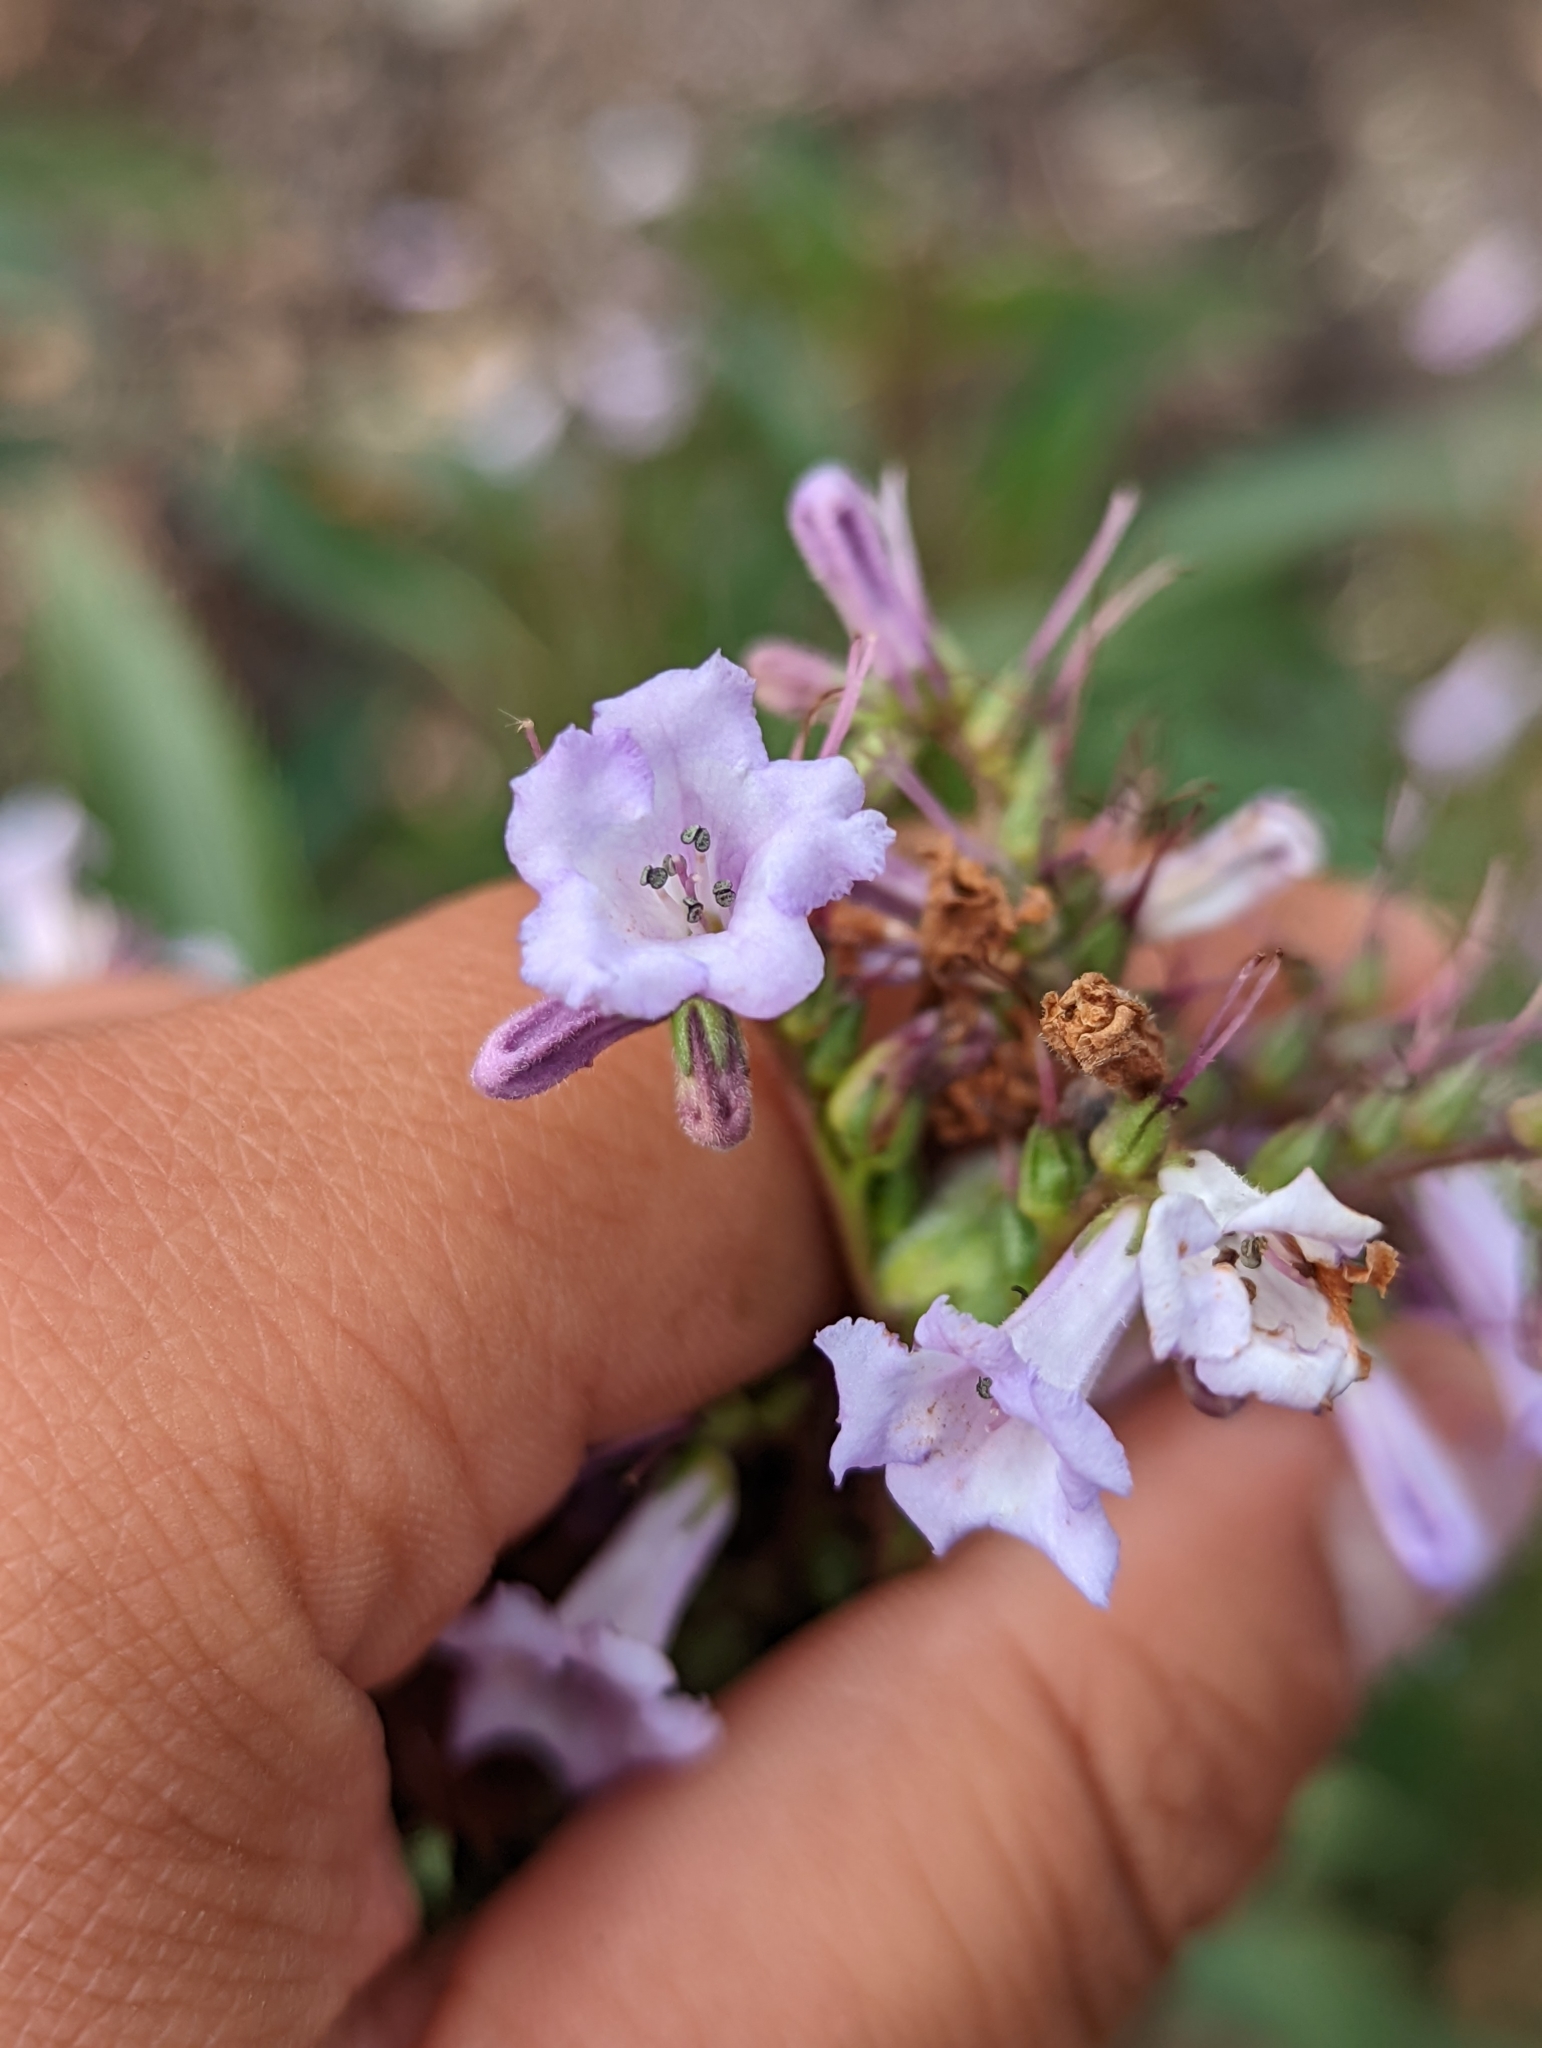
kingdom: Plantae
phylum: Tracheophyta
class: Magnoliopsida
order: Boraginales
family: Namaceae
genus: Eriodictyon
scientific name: Eriodictyon californicum
